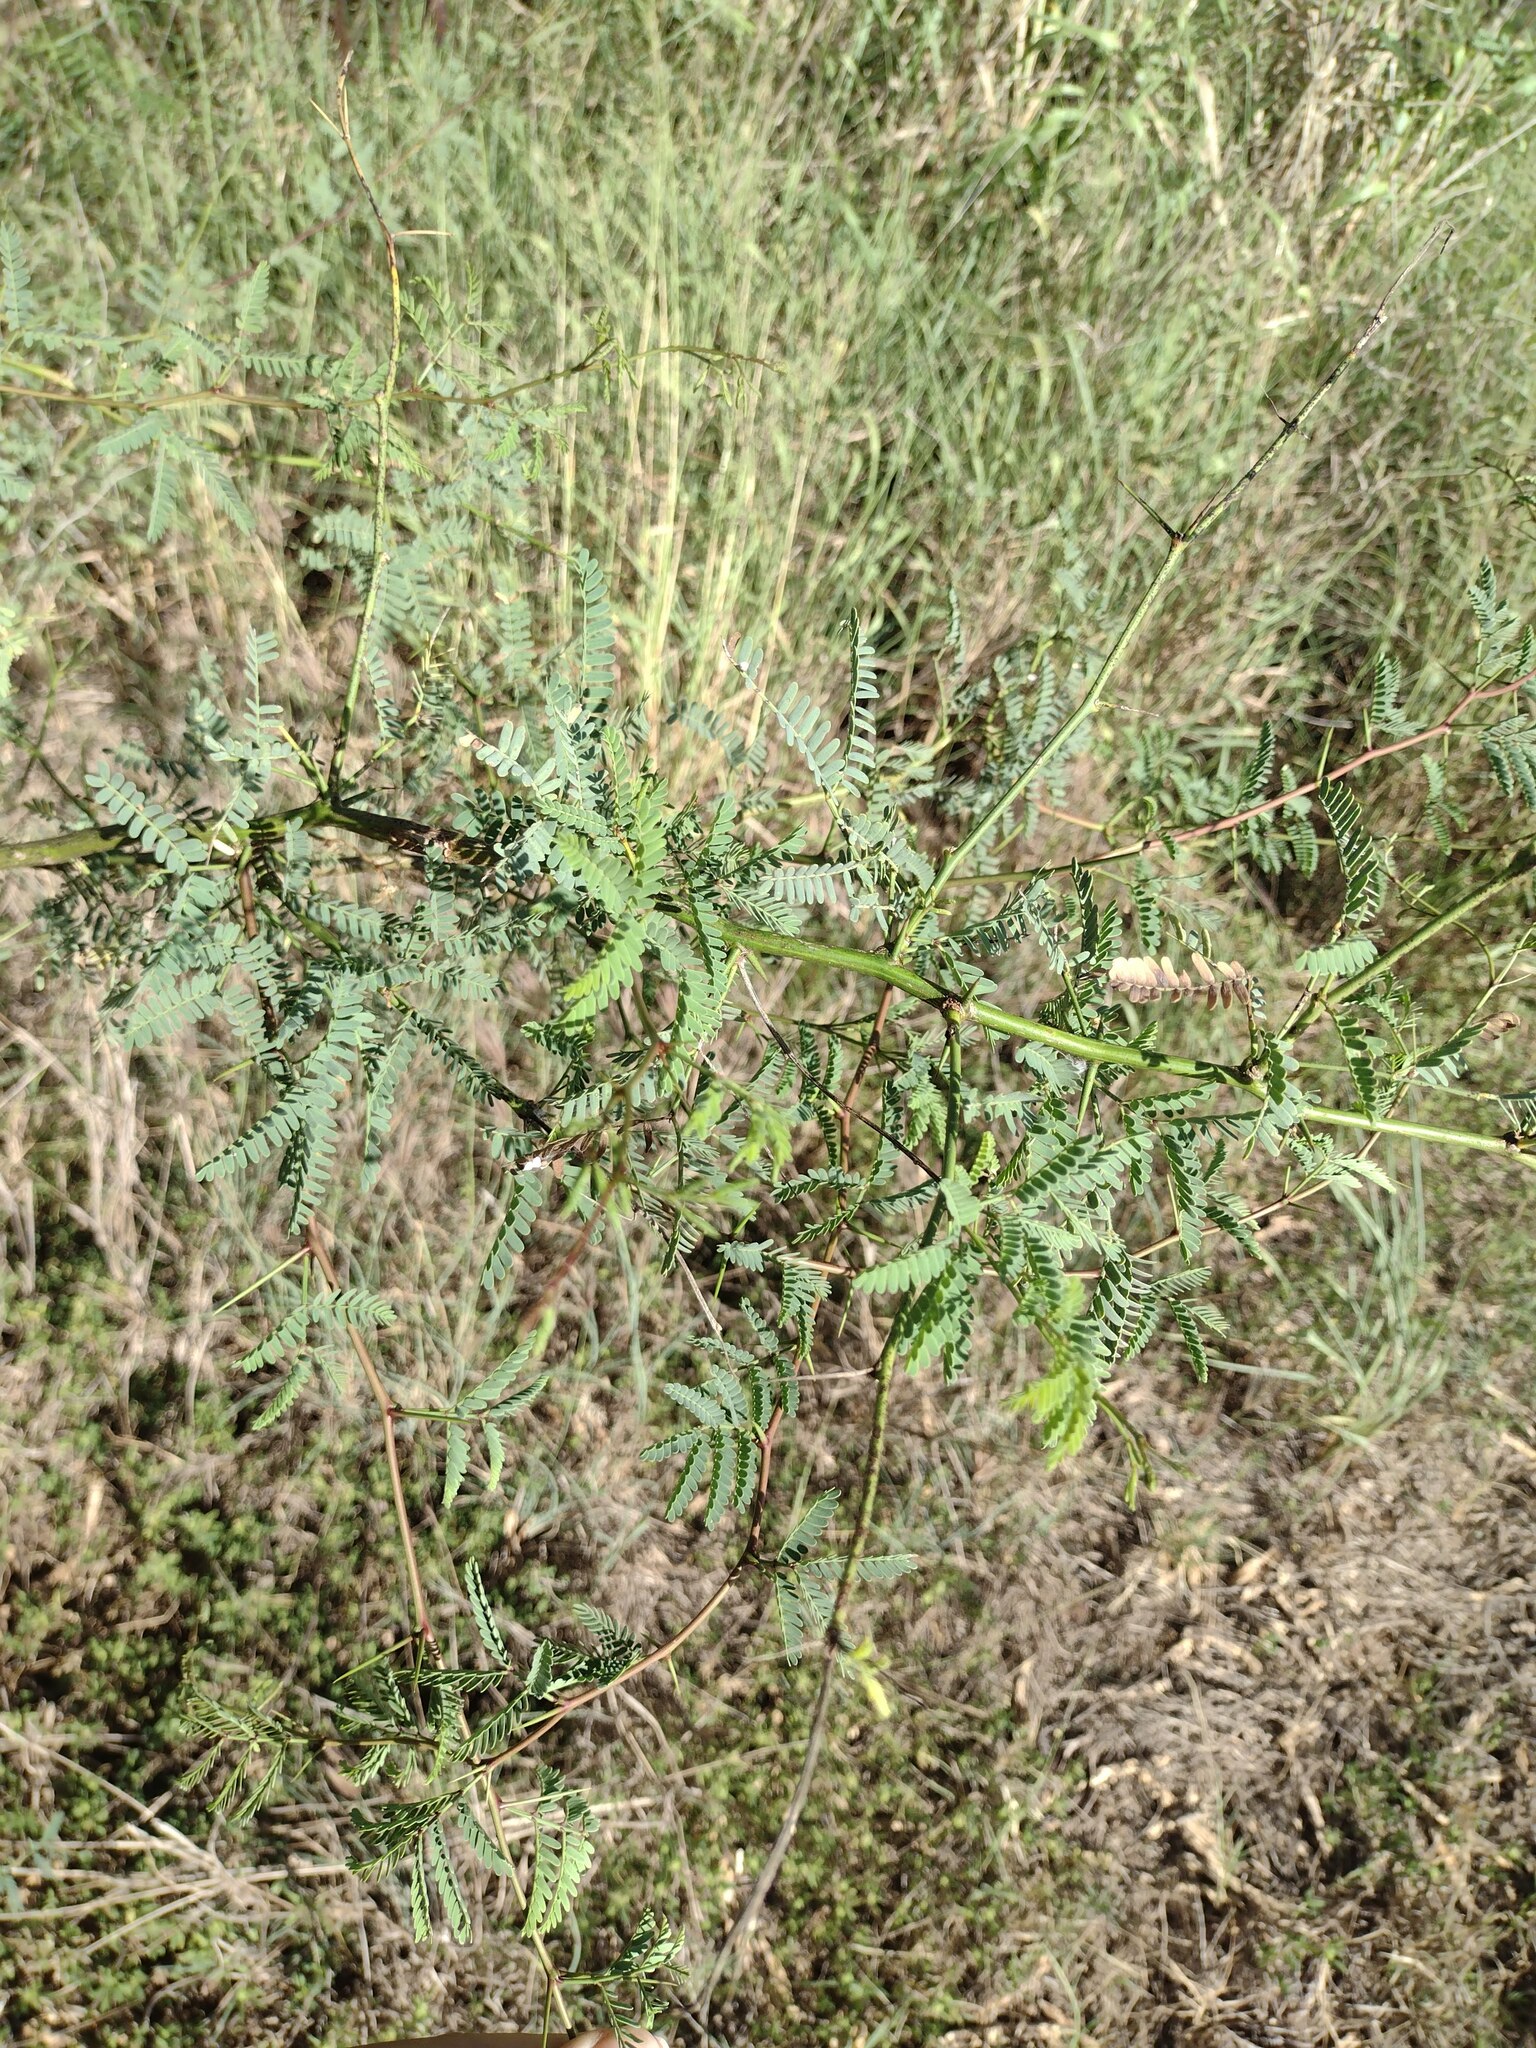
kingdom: Plantae
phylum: Tracheophyta
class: Magnoliopsida
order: Fabales
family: Fabaceae
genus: Prosopis
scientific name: Prosopis pallida
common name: Mesquite
